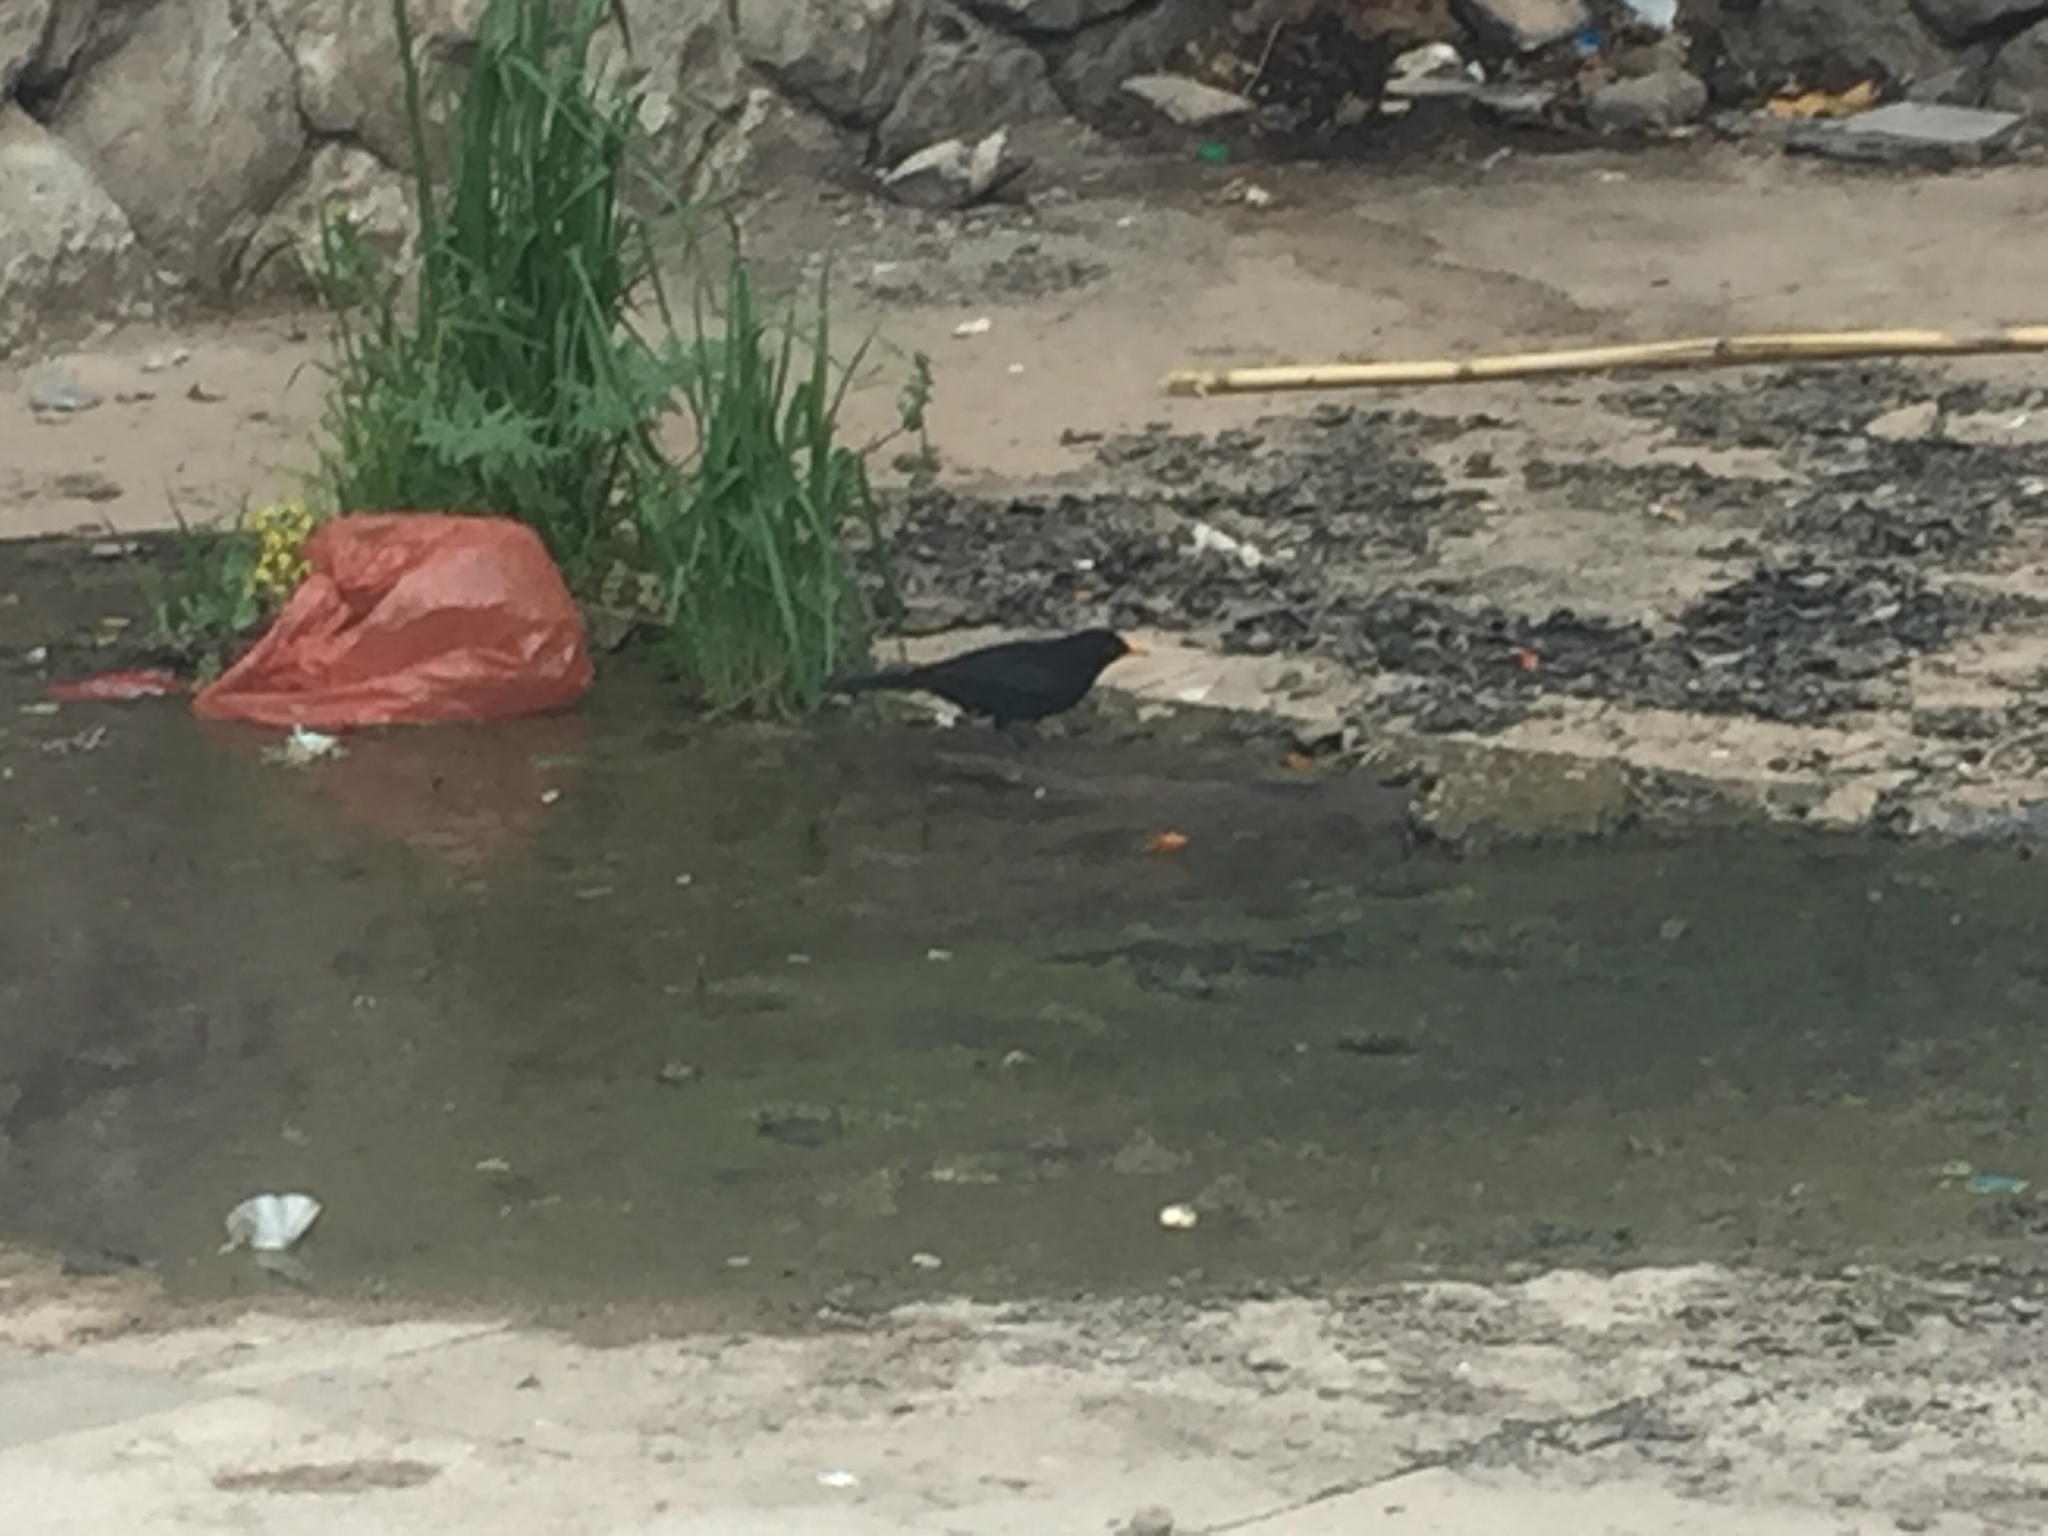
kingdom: Animalia
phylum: Chordata
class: Aves
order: Passeriformes
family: Turdidae
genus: Turdus
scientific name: Turdus merula
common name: Common blackbird
